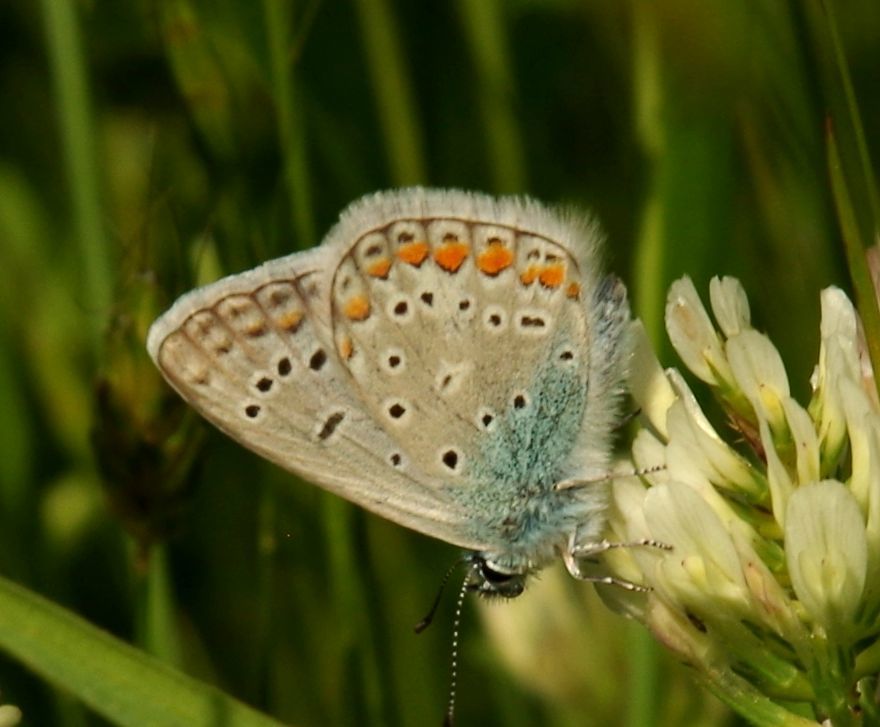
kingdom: Animalia
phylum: Arthropoda
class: Insecta
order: Lepidoptera
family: Lycaenidae
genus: Polyommatus
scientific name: Polyommatus icarus
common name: Common blue
